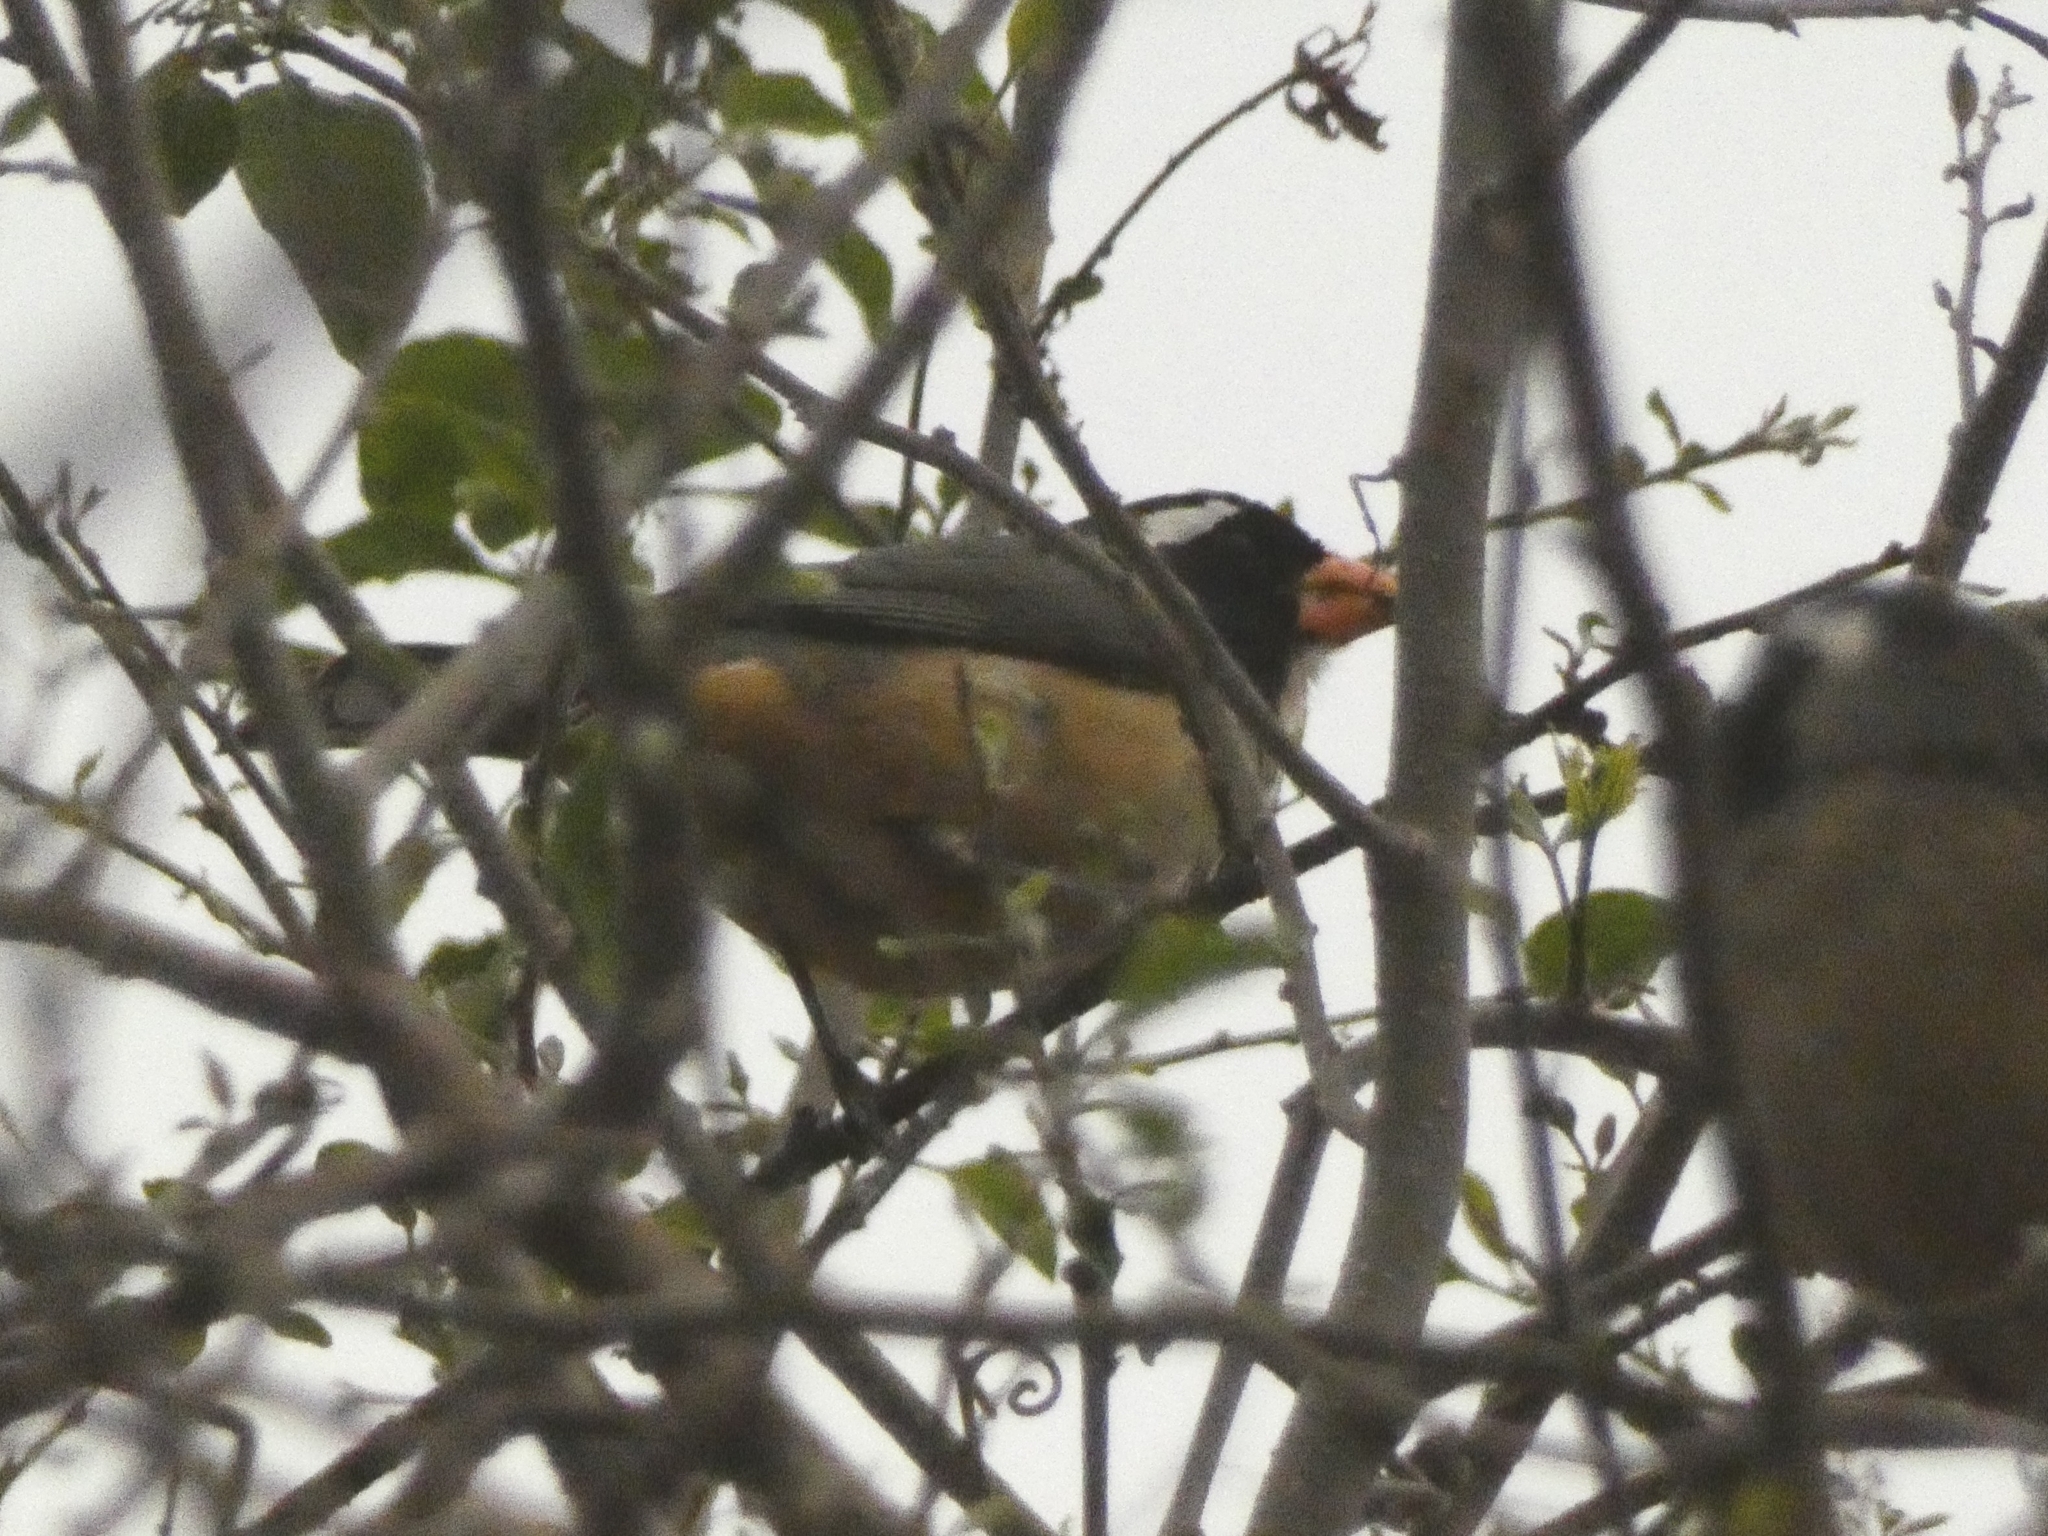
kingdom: Animalia
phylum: Chordata
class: Aves
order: Passeriformes
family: Thraupidae
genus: Saltator
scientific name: Saltator aurantiirostris
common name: Golden-billed saltator
